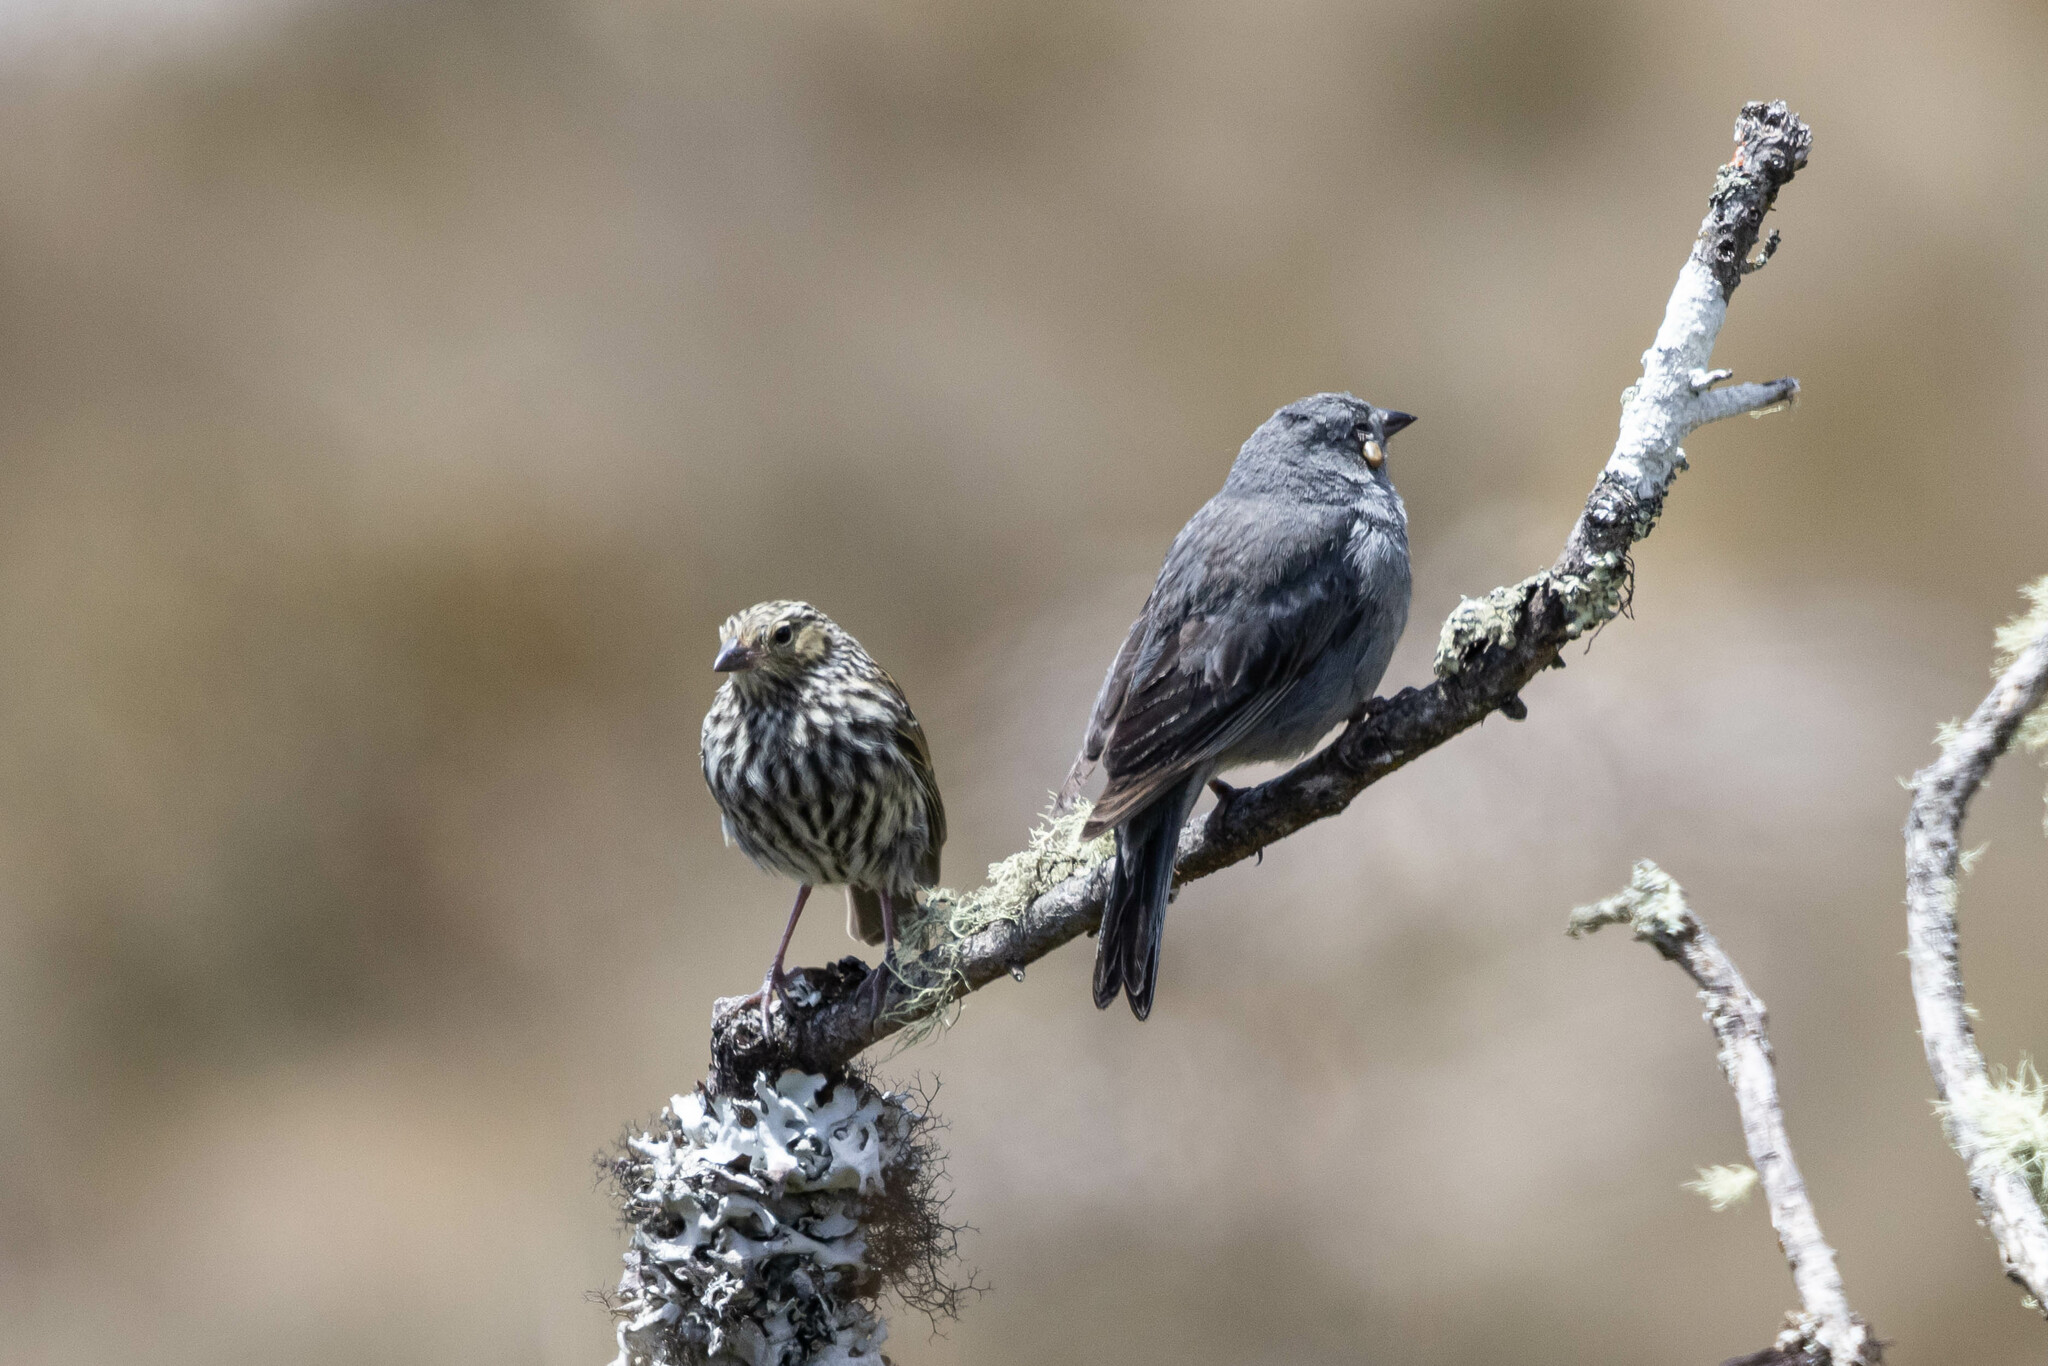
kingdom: Animalia
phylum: Chordata
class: Aves
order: Passeriformes
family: Thraupidae
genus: Geospizopsis
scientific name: Geospizopsis unicolor
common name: Plumbeous sierra-finch
